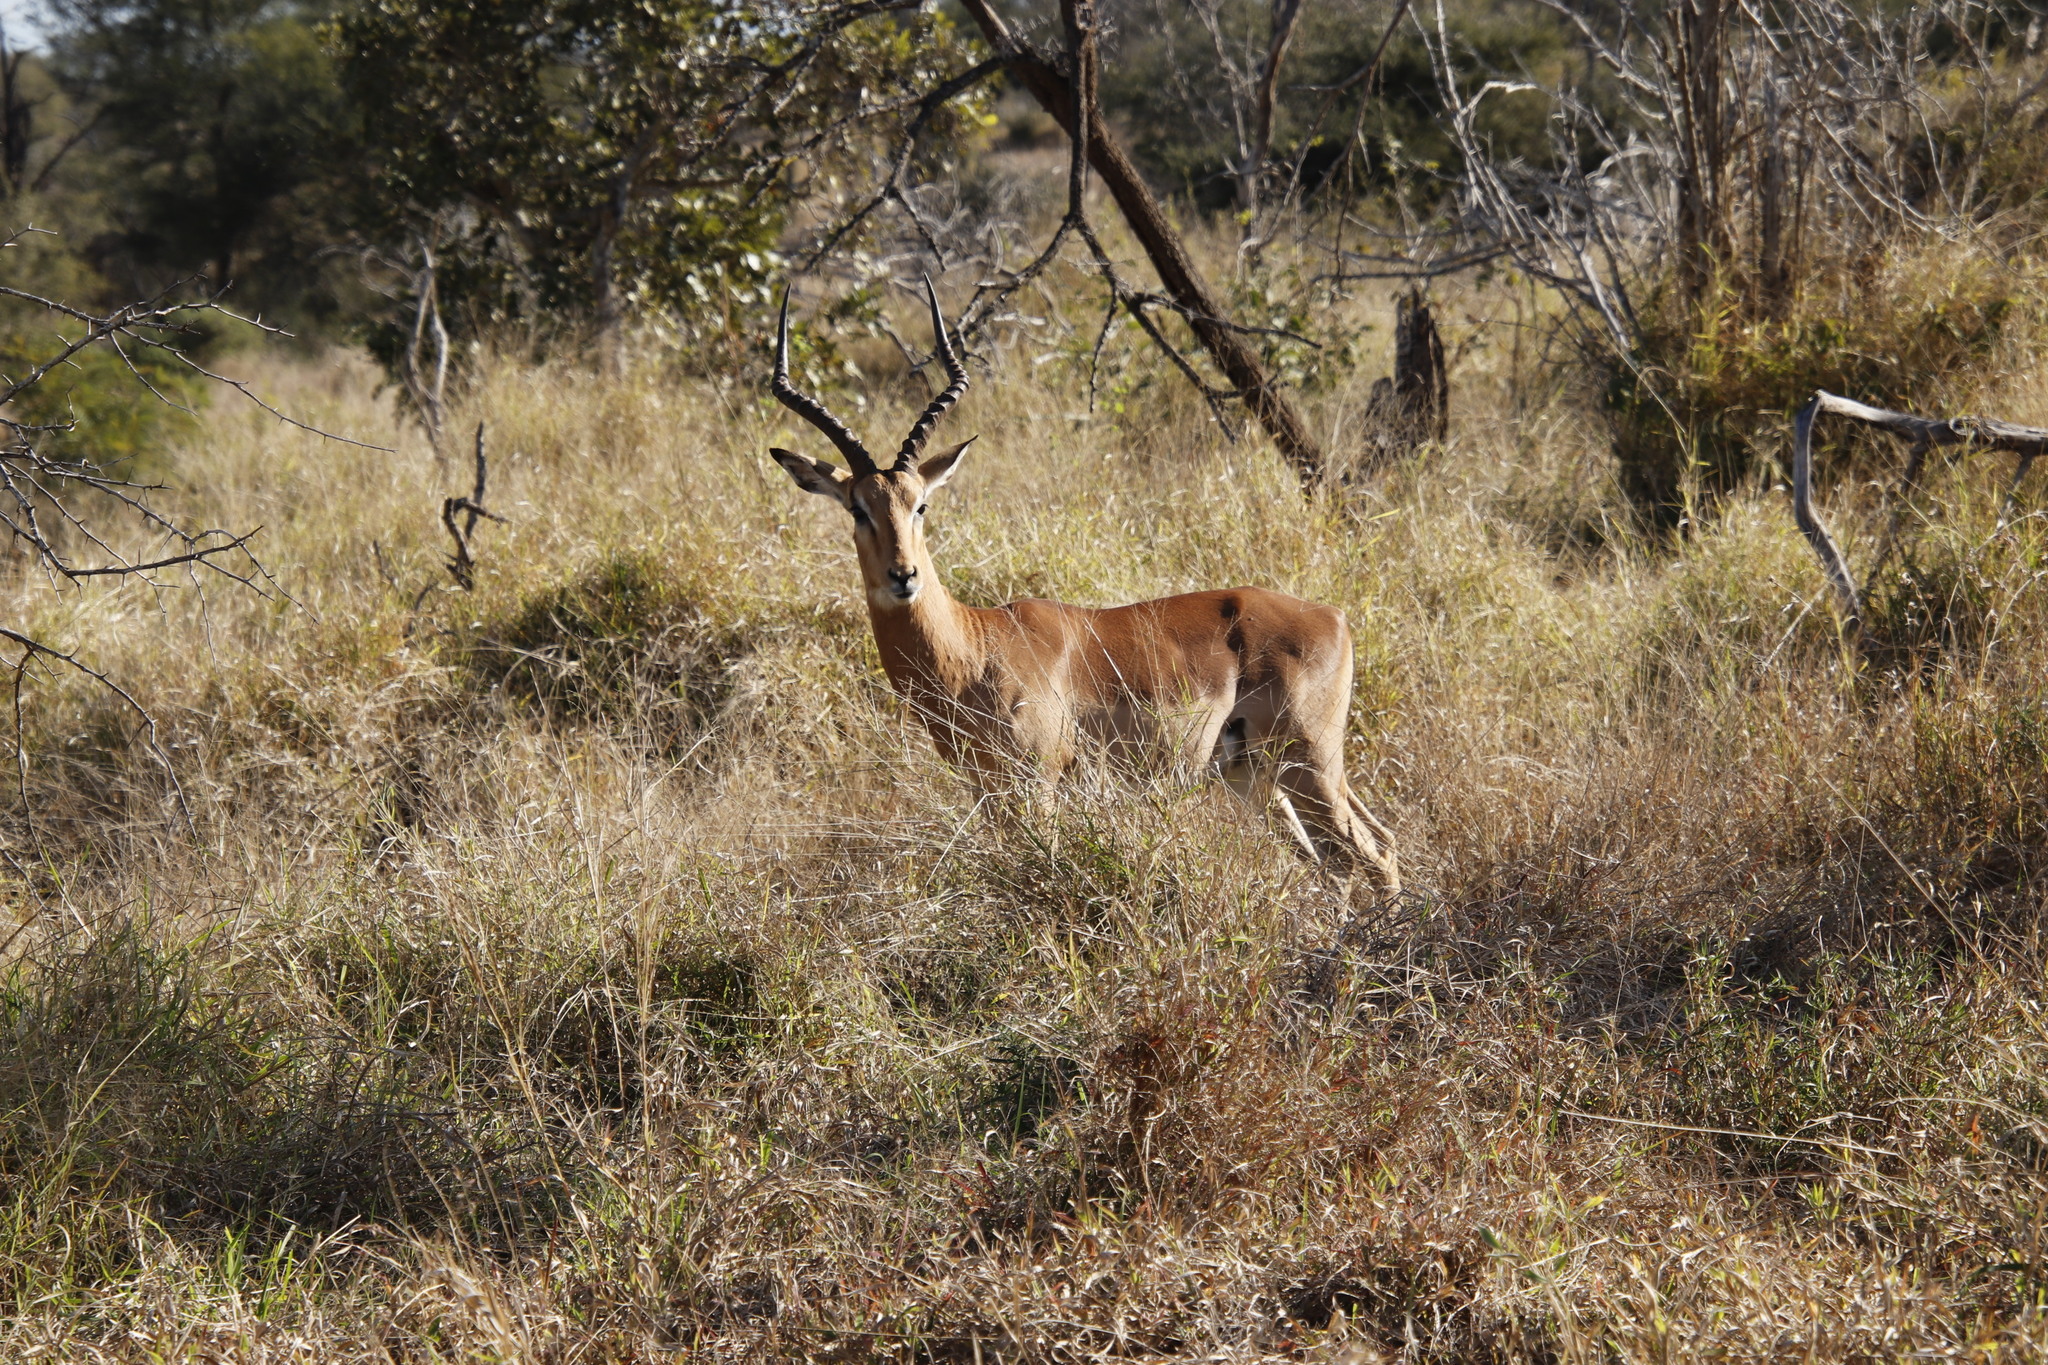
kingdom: Animalia
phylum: Chordata
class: Mammalia
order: Artiodactyla
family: Bovidae
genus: Aepyceros
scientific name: Aepyceros melampus
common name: Impala
